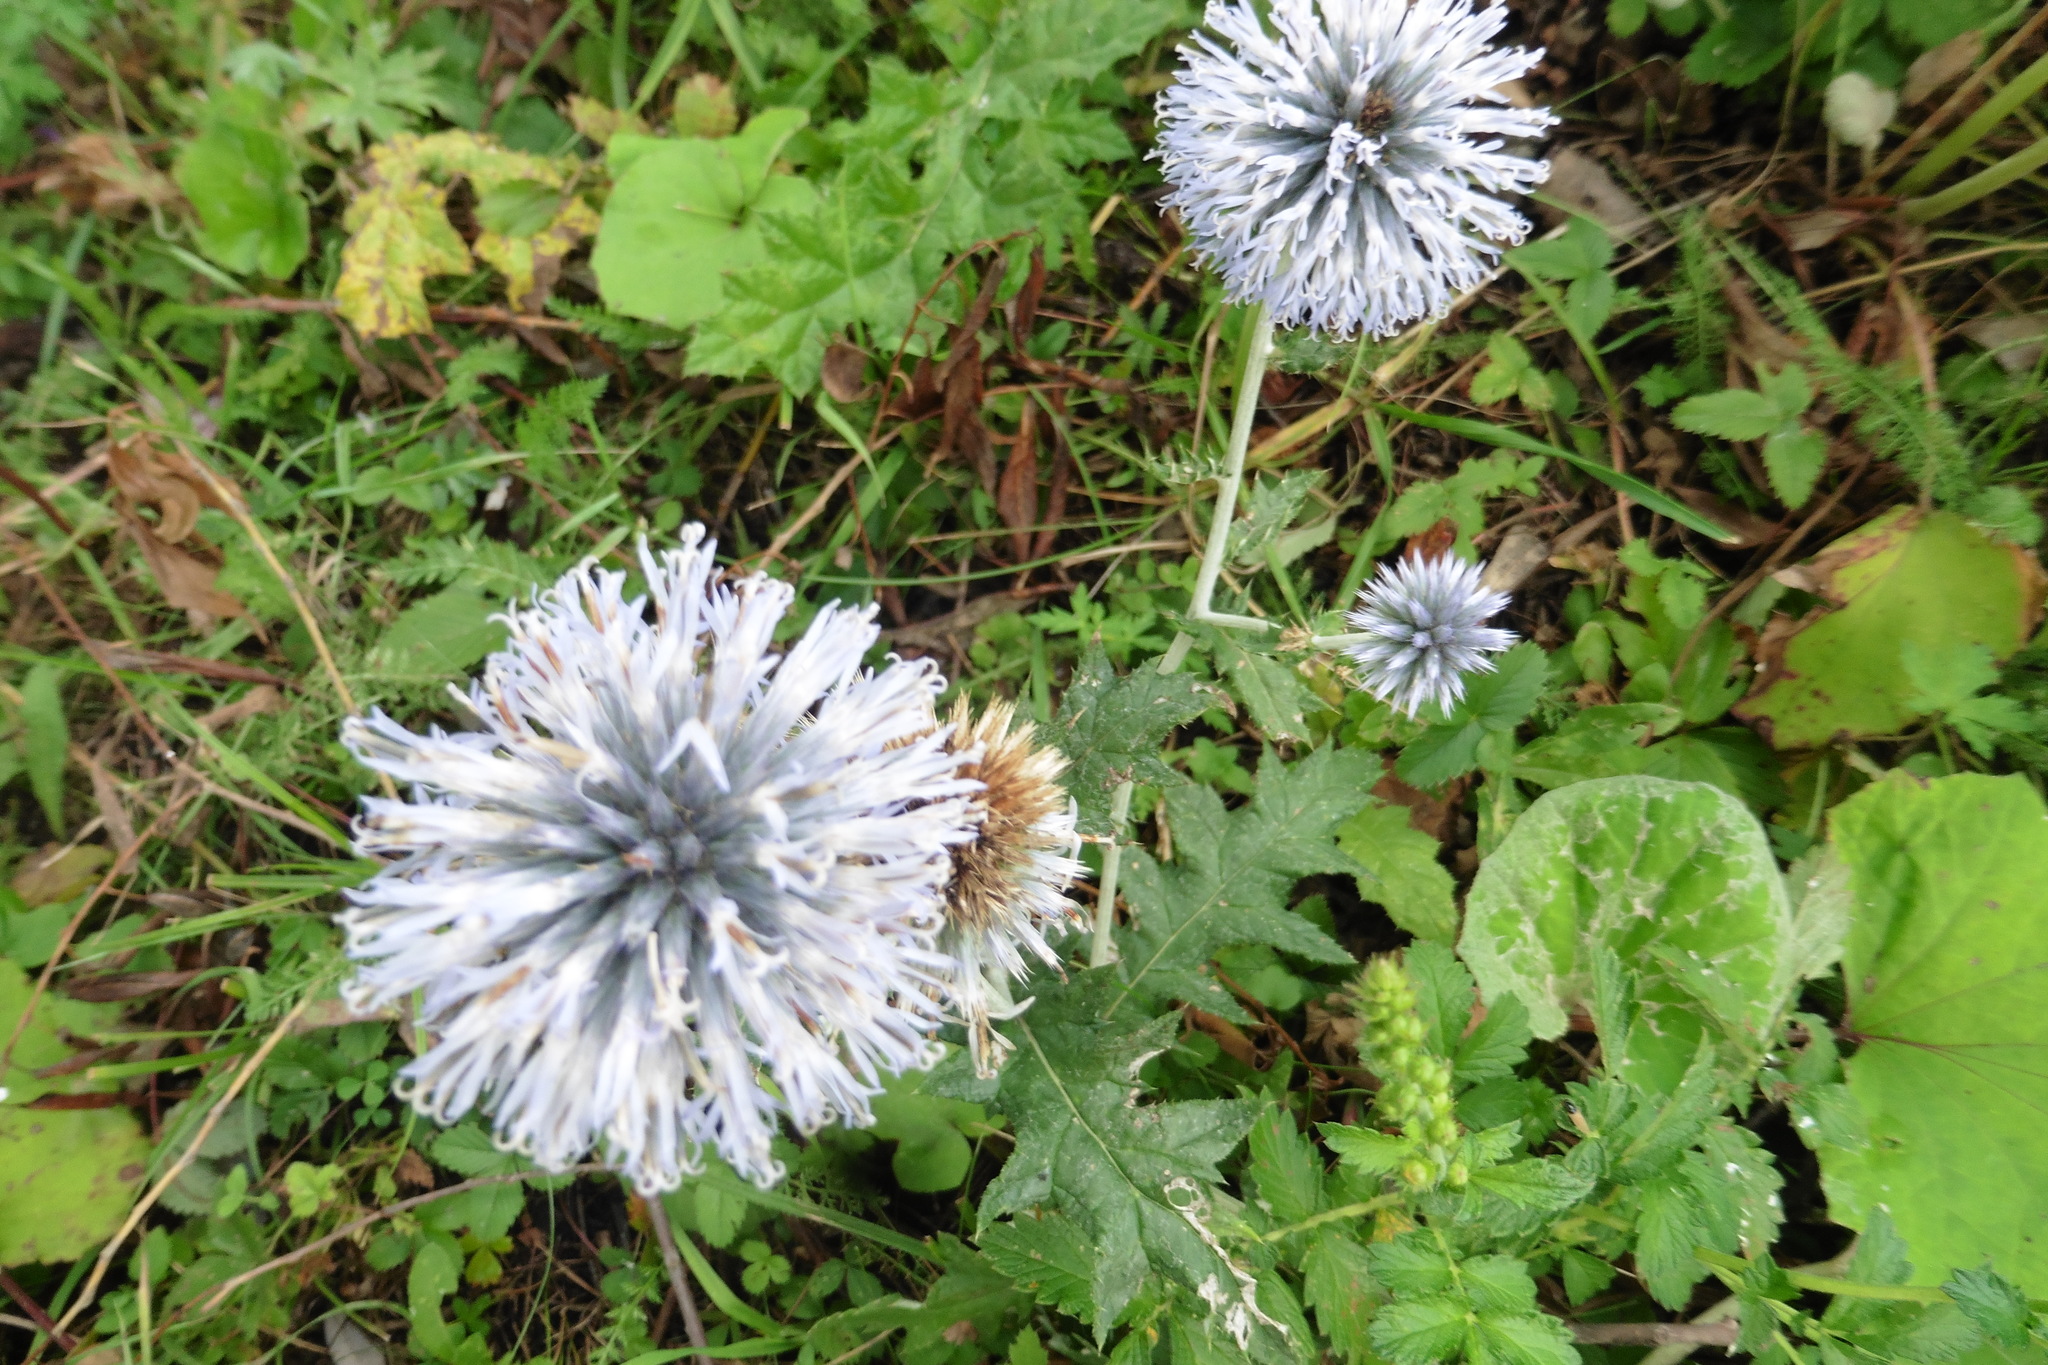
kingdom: Plantae
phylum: Tracheophyta
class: Magnoliopsida
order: Asterales
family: Asteraceae
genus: Echinops
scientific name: Echinops ritro
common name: Globe thistle
